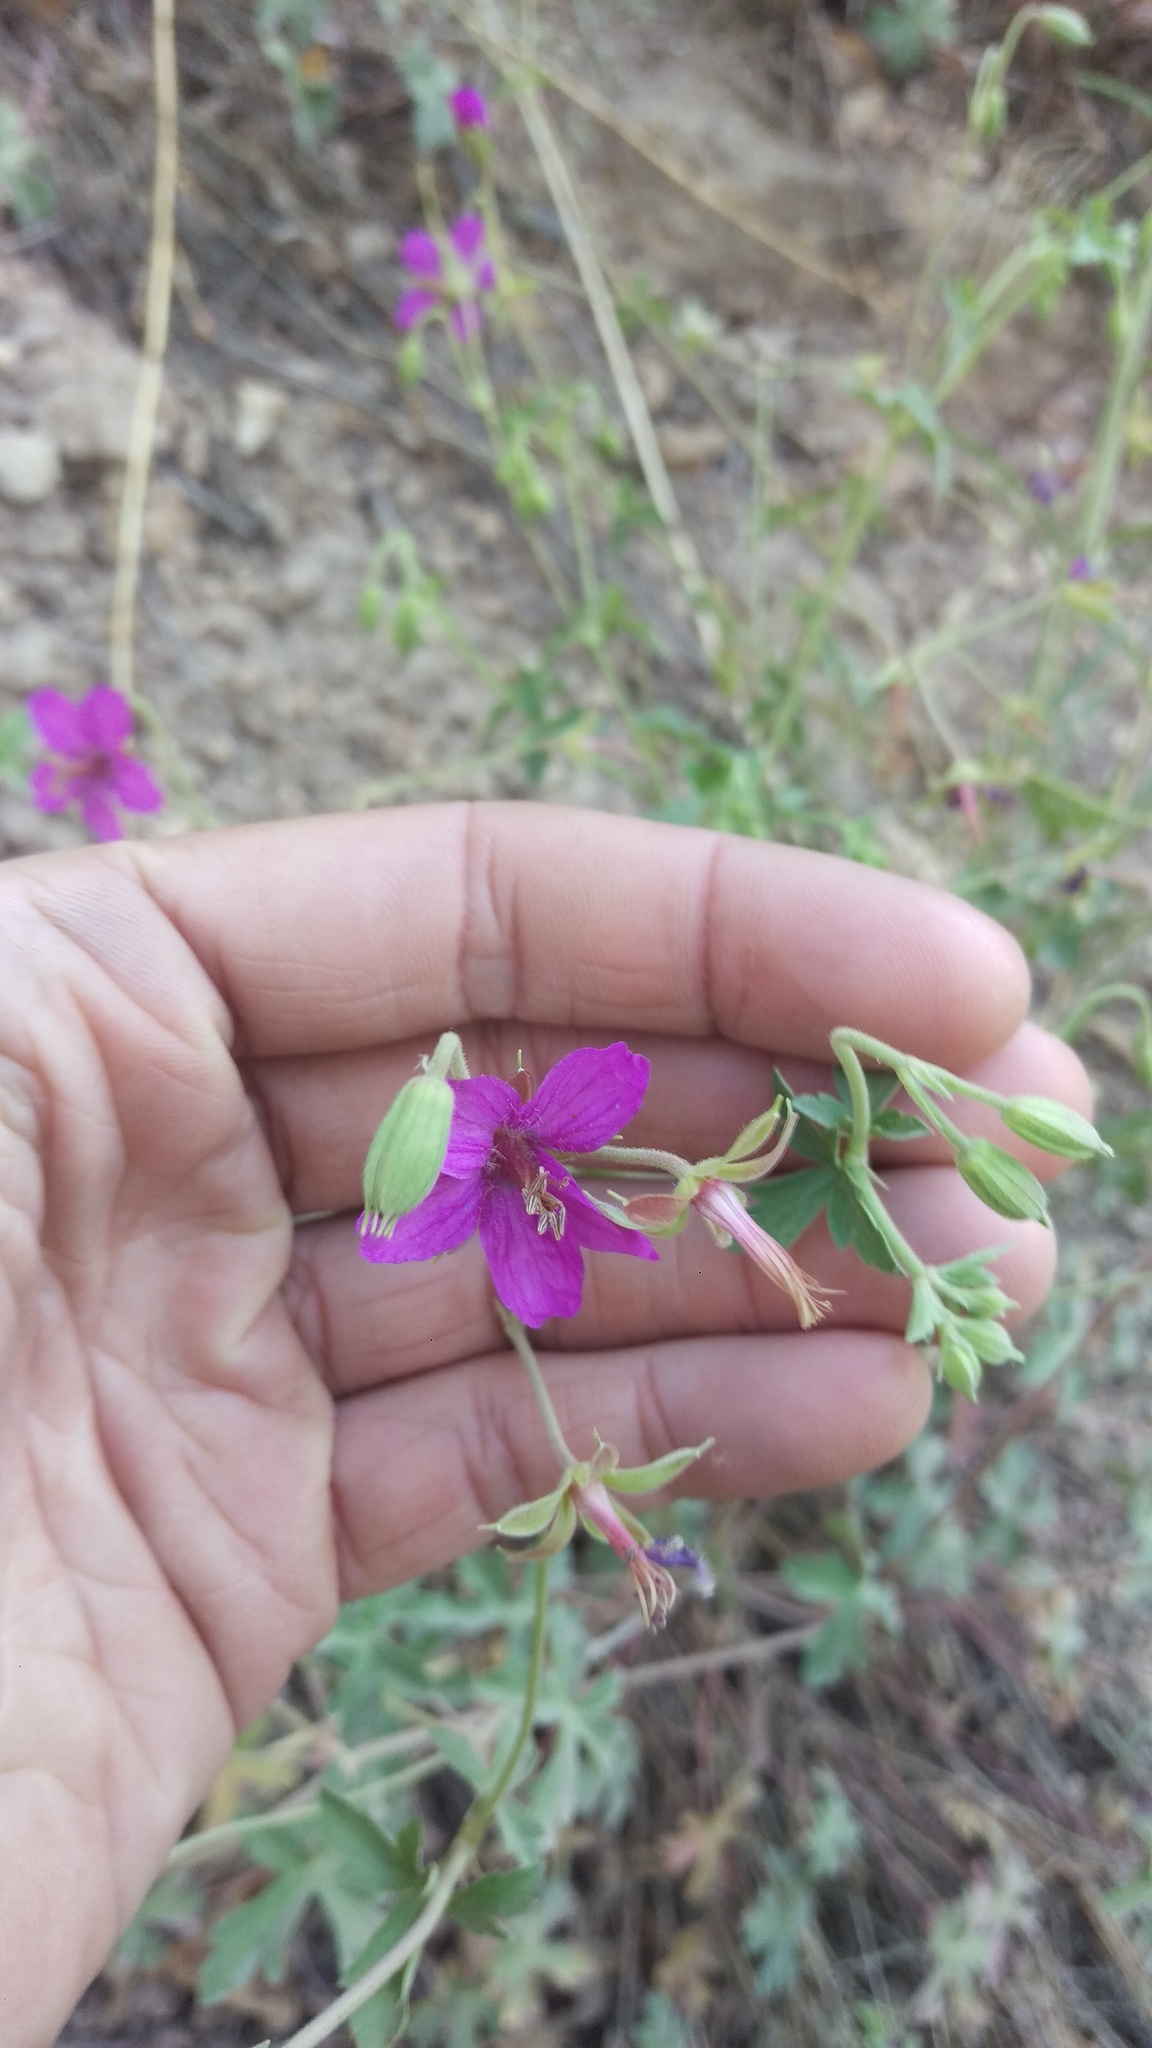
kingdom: Plantae
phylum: Tracheophyta
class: Magnoliopsida
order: Geraniales
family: Geraniaceae
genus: Geranium
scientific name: Geranium caespitosum
